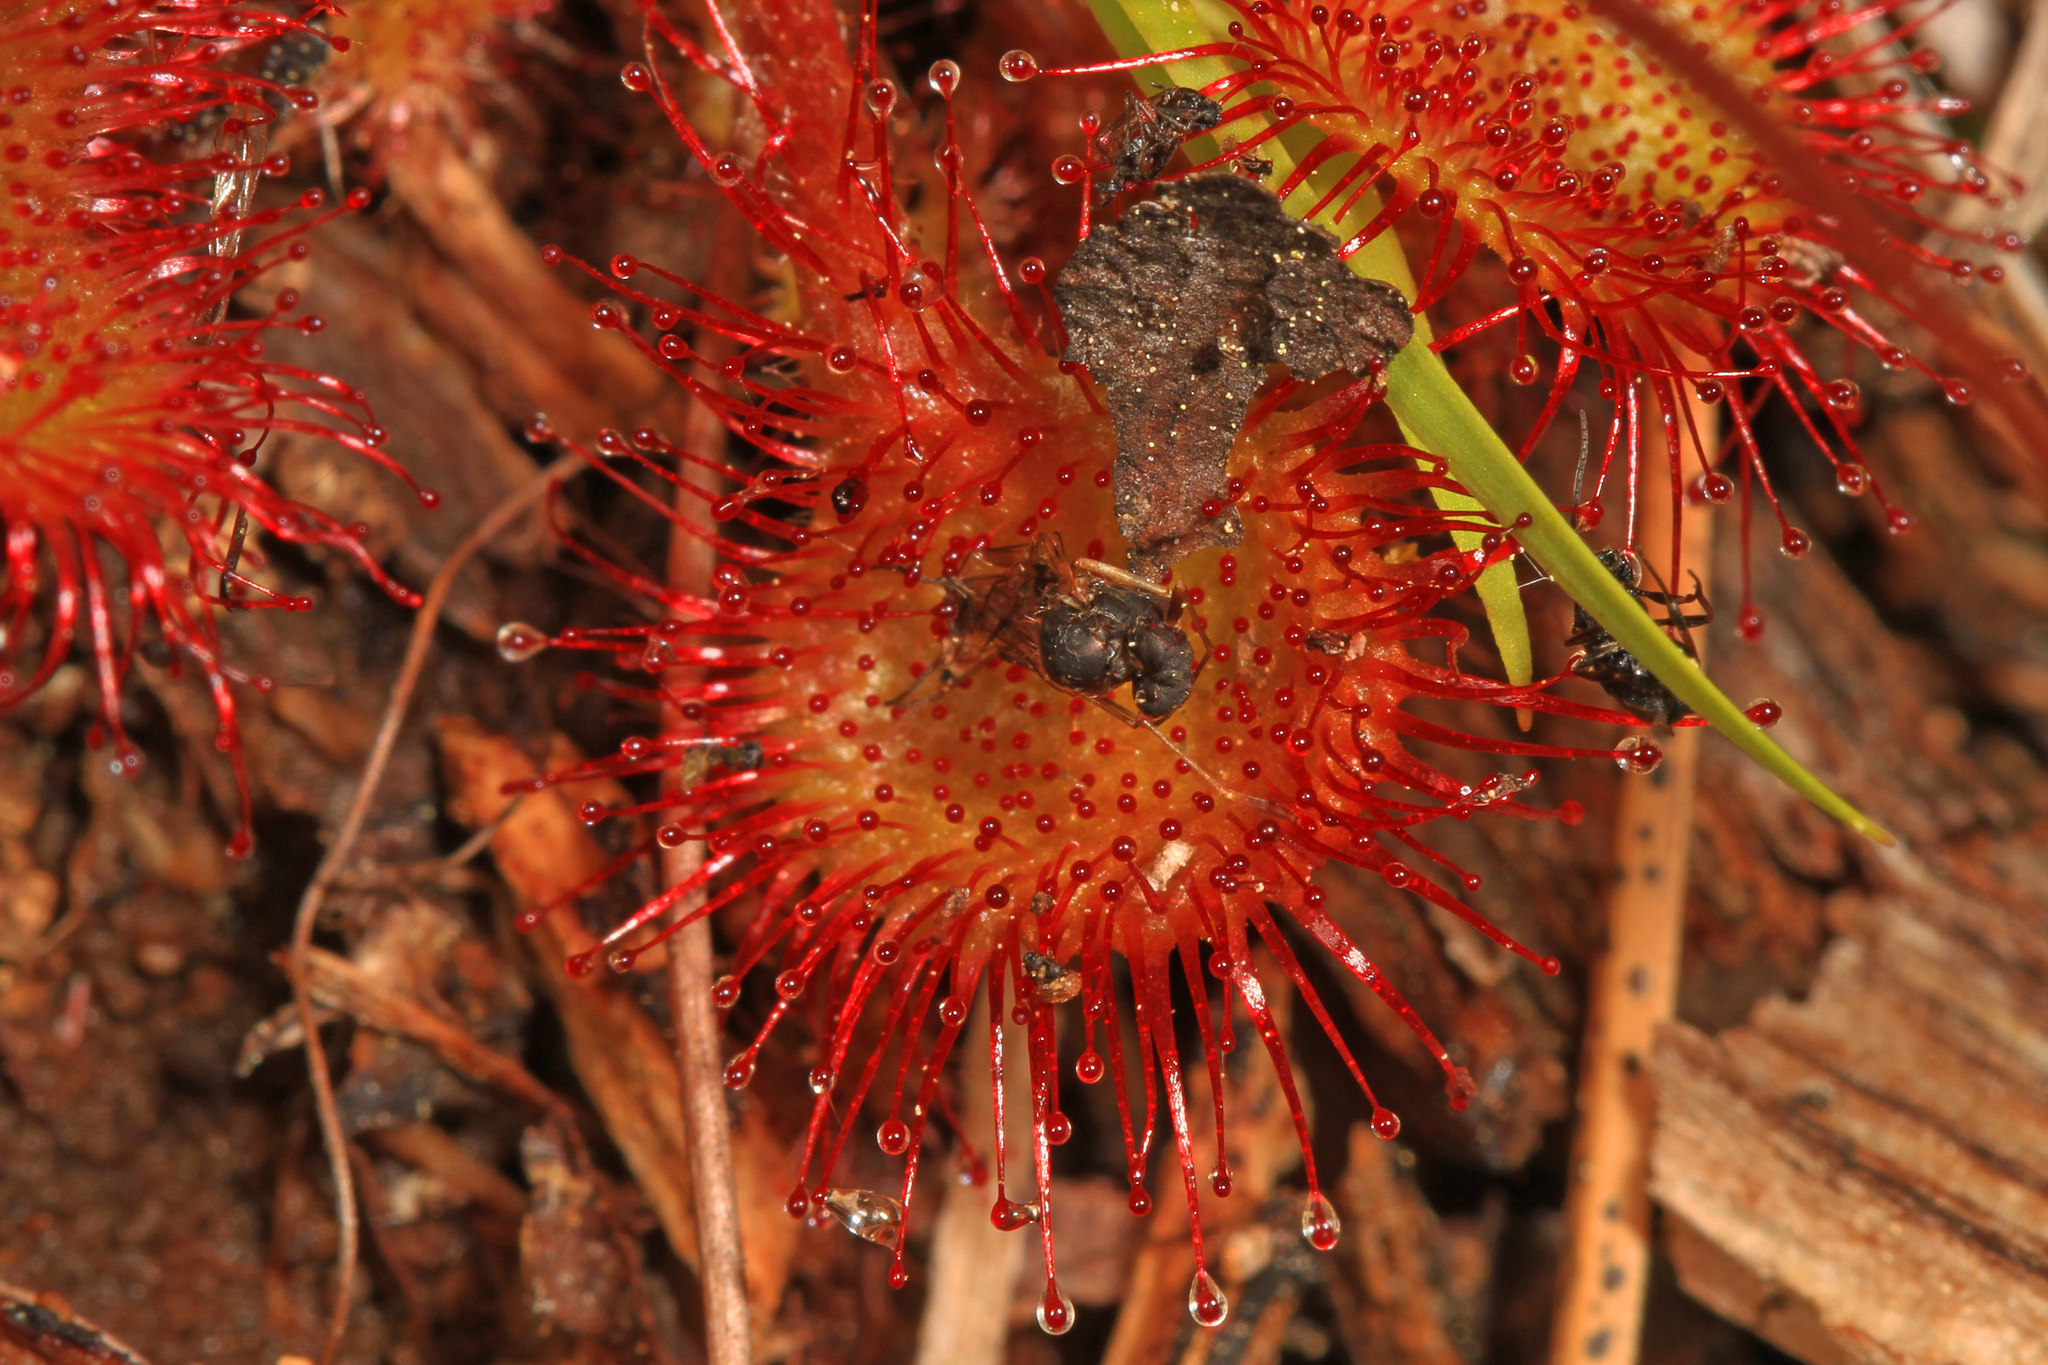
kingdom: Plantae
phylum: Tracheophyta
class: Magnoliopsida
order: Caryophyllales
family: Droseraceae
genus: Drosera
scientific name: Drosera rotundifolia
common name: Round-leaved sundew
